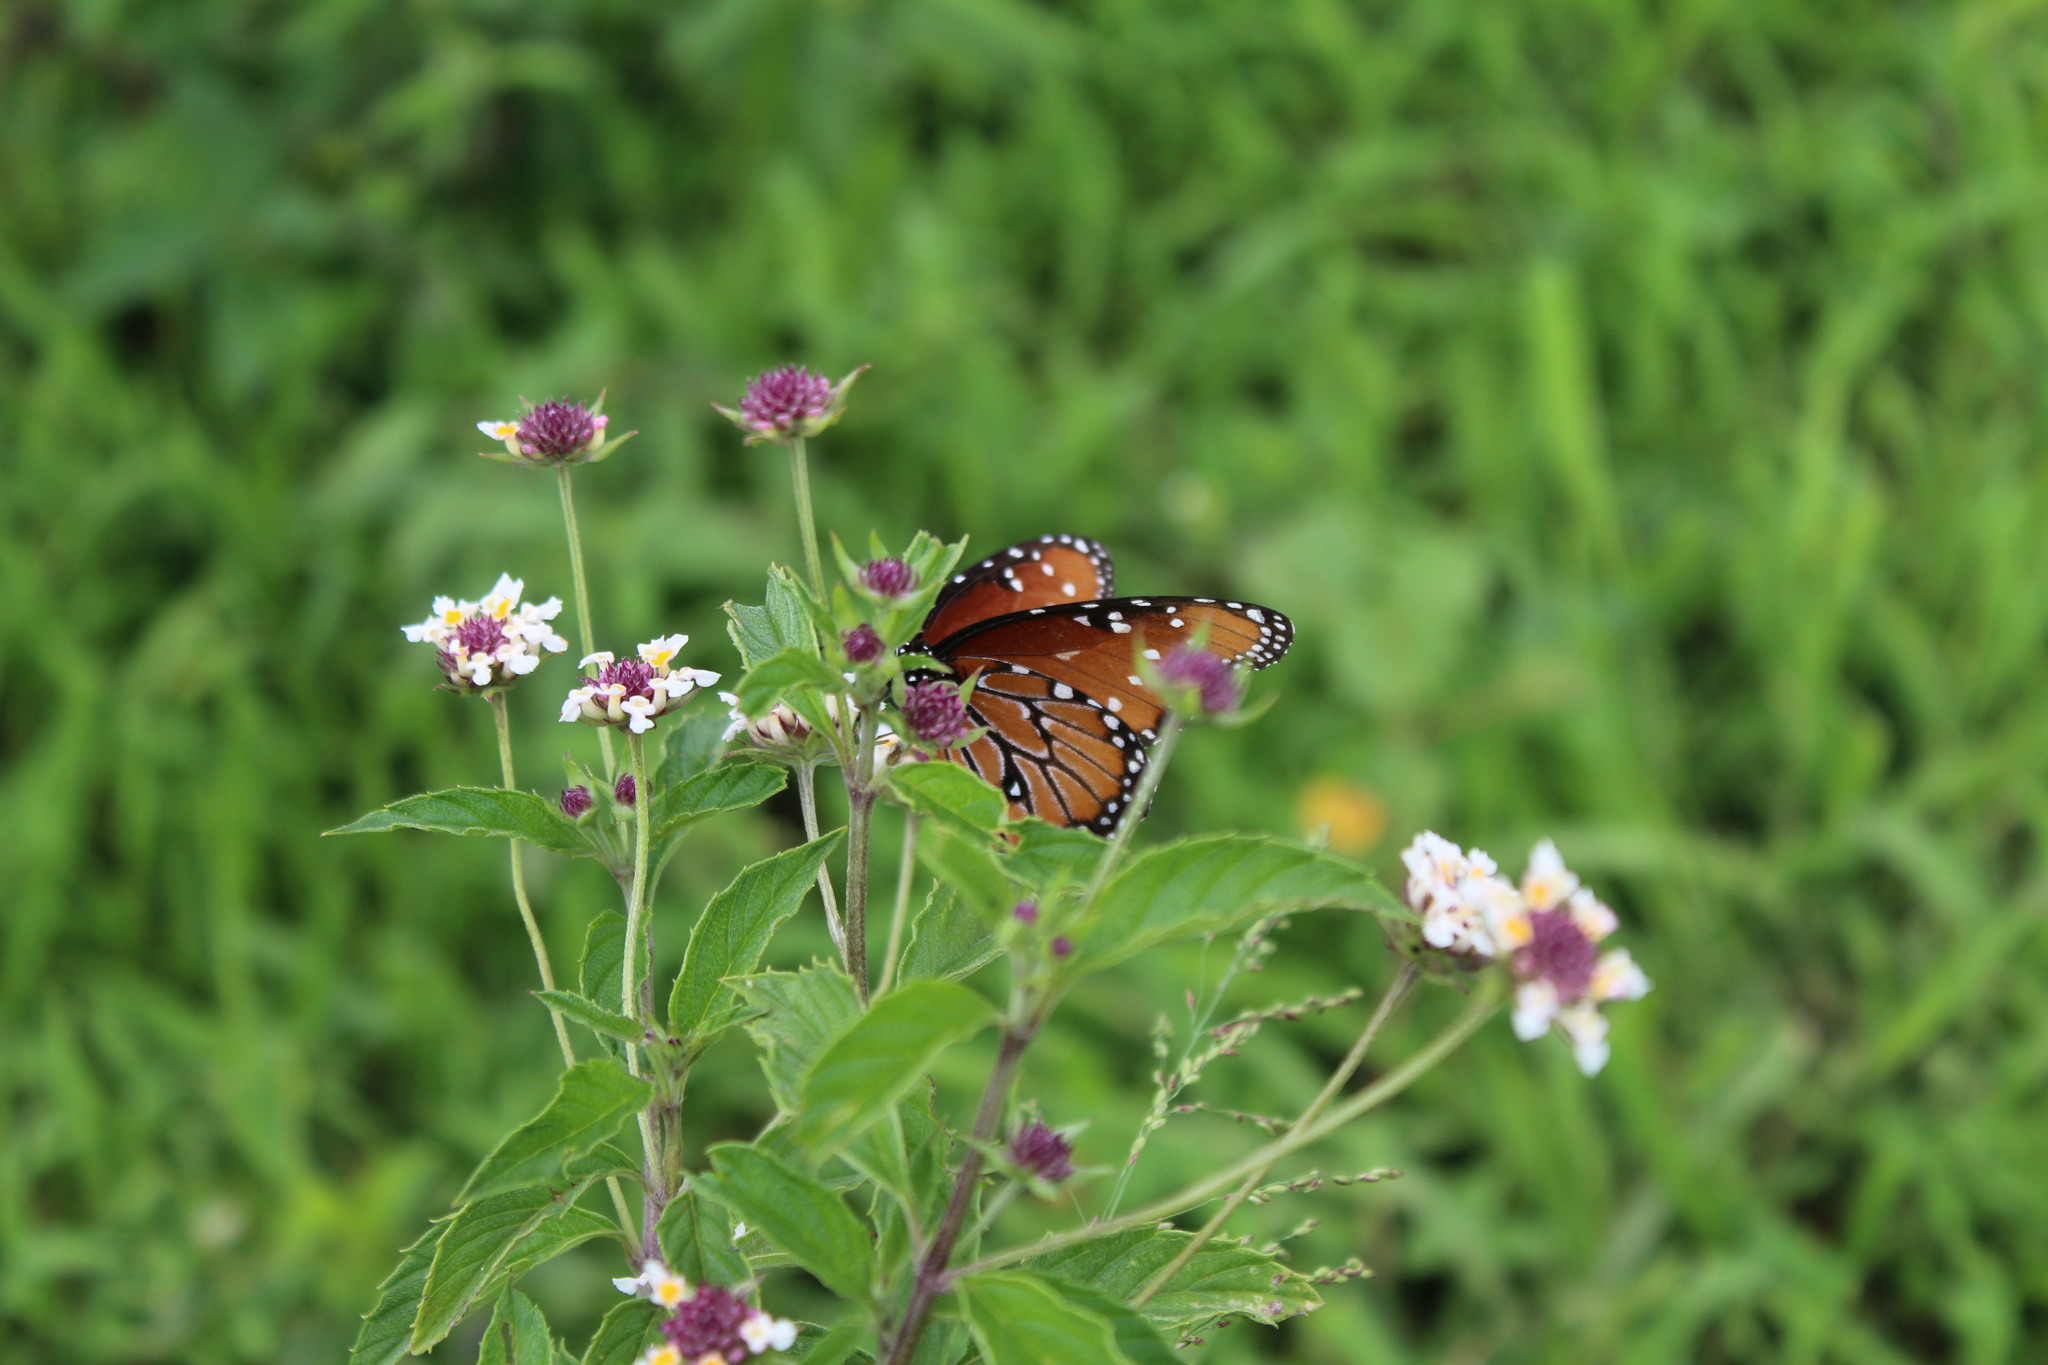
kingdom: Animalia
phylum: Arthropoda
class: Insecta
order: Lepidoptera
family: Nymphalidae
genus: Danaus
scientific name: Danaus gilippus
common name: Queen
